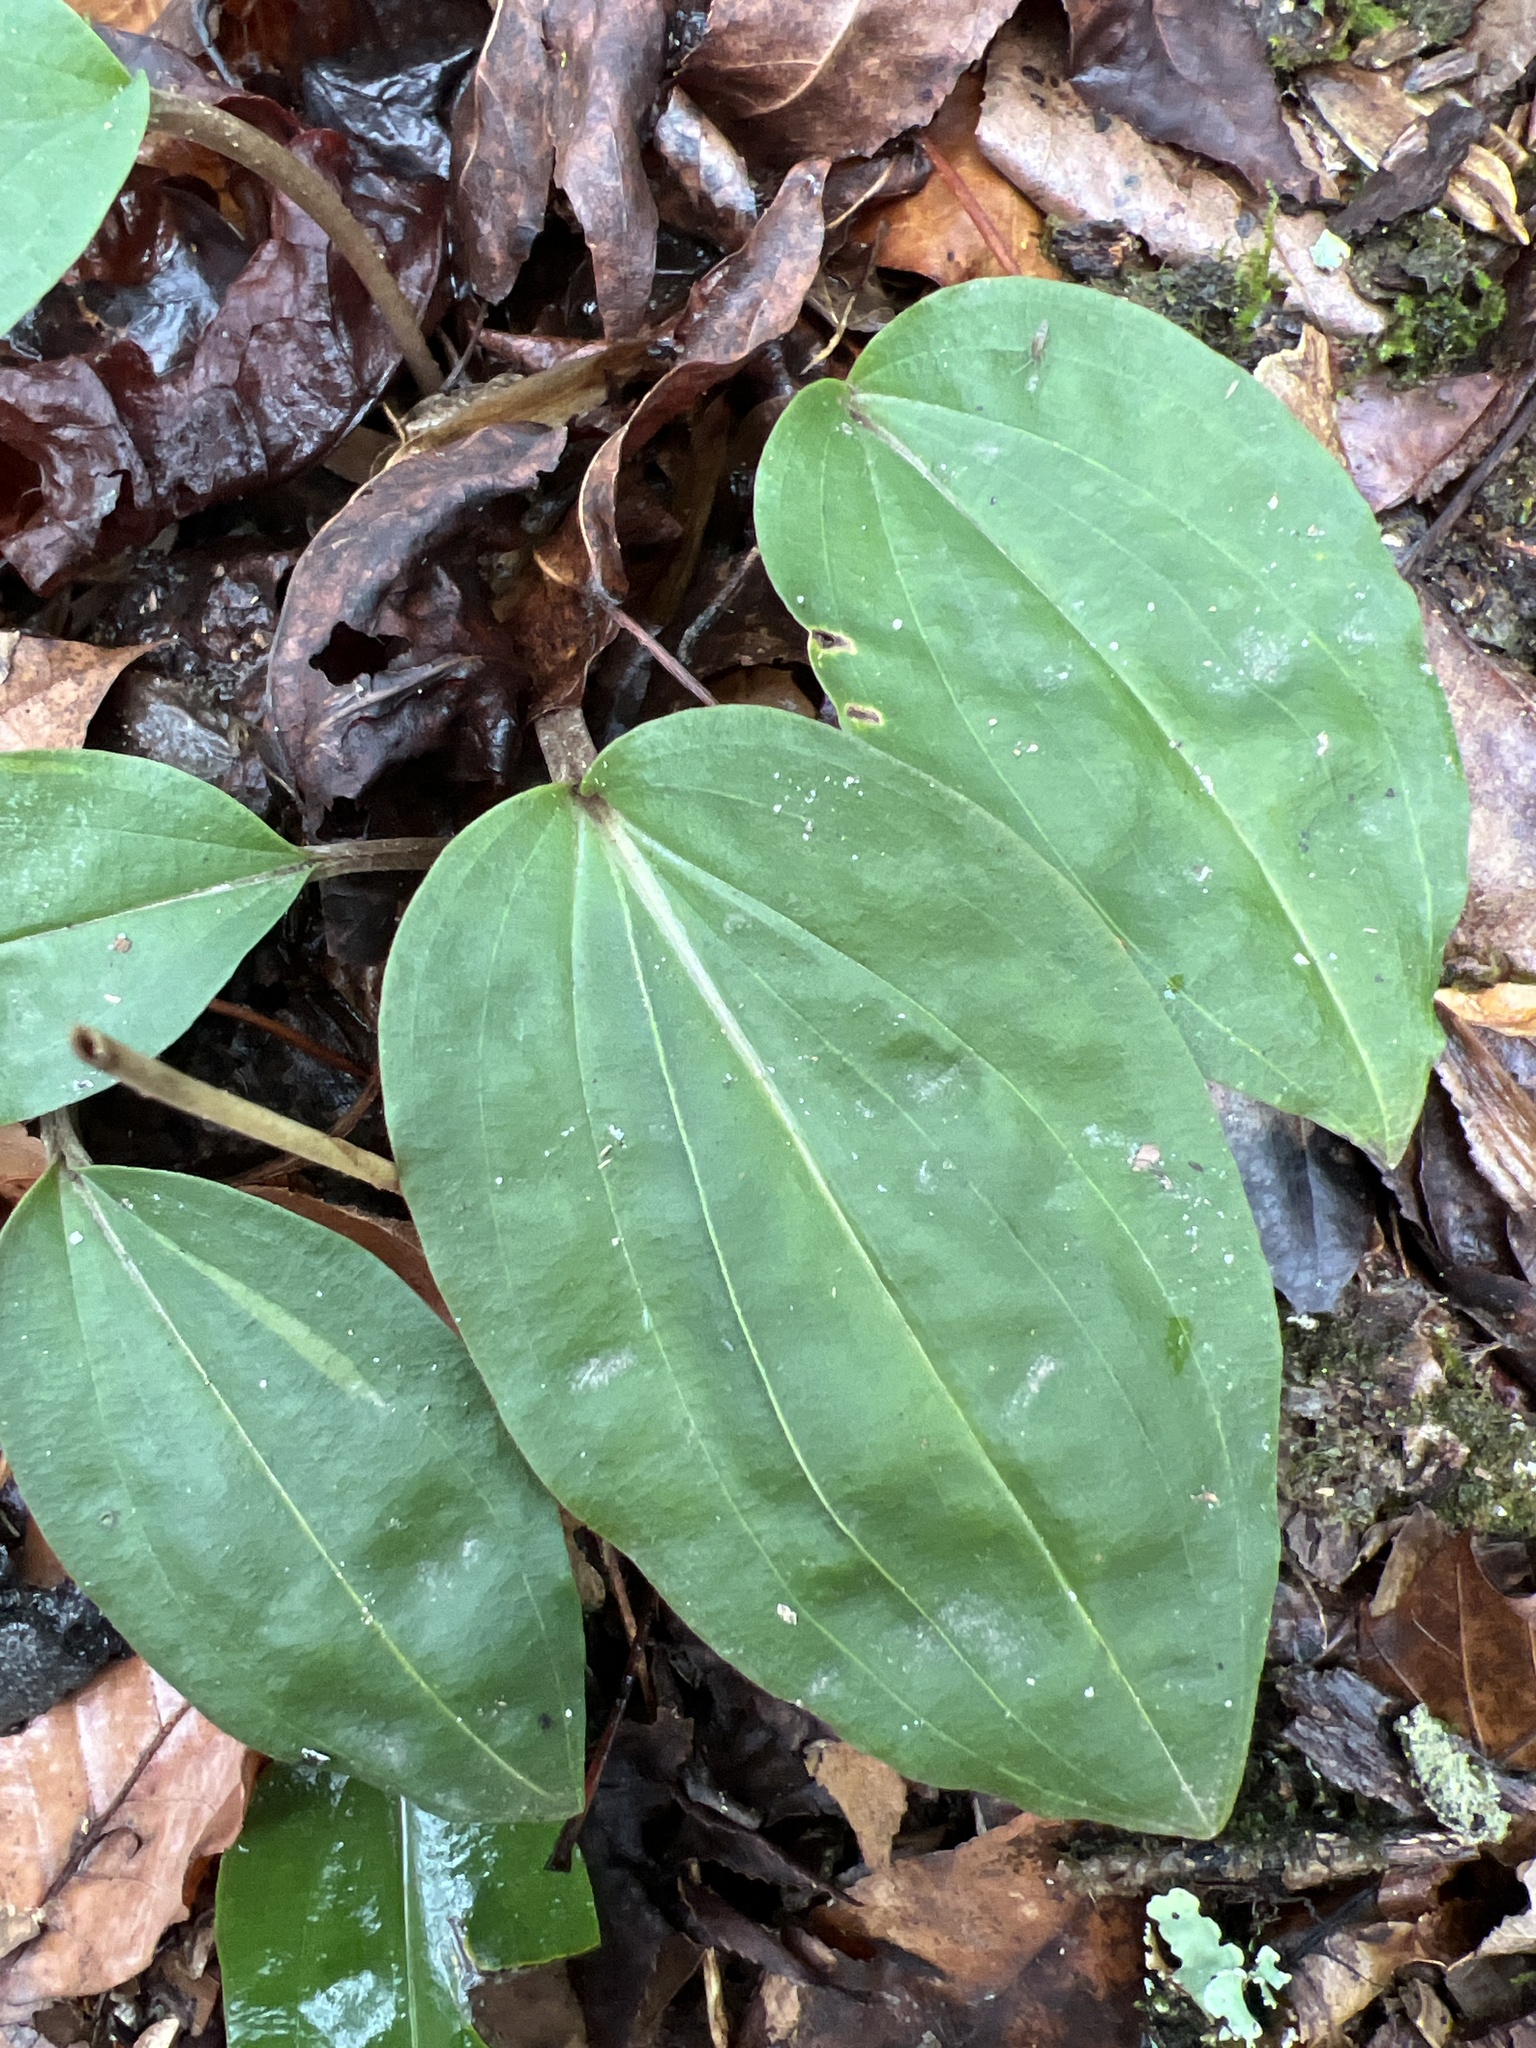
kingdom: Plantae
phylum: Tracheophyta
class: Liliopsida
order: Asparagales
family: Orchidaceae
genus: Tipularia
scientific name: Tipularia discolor
